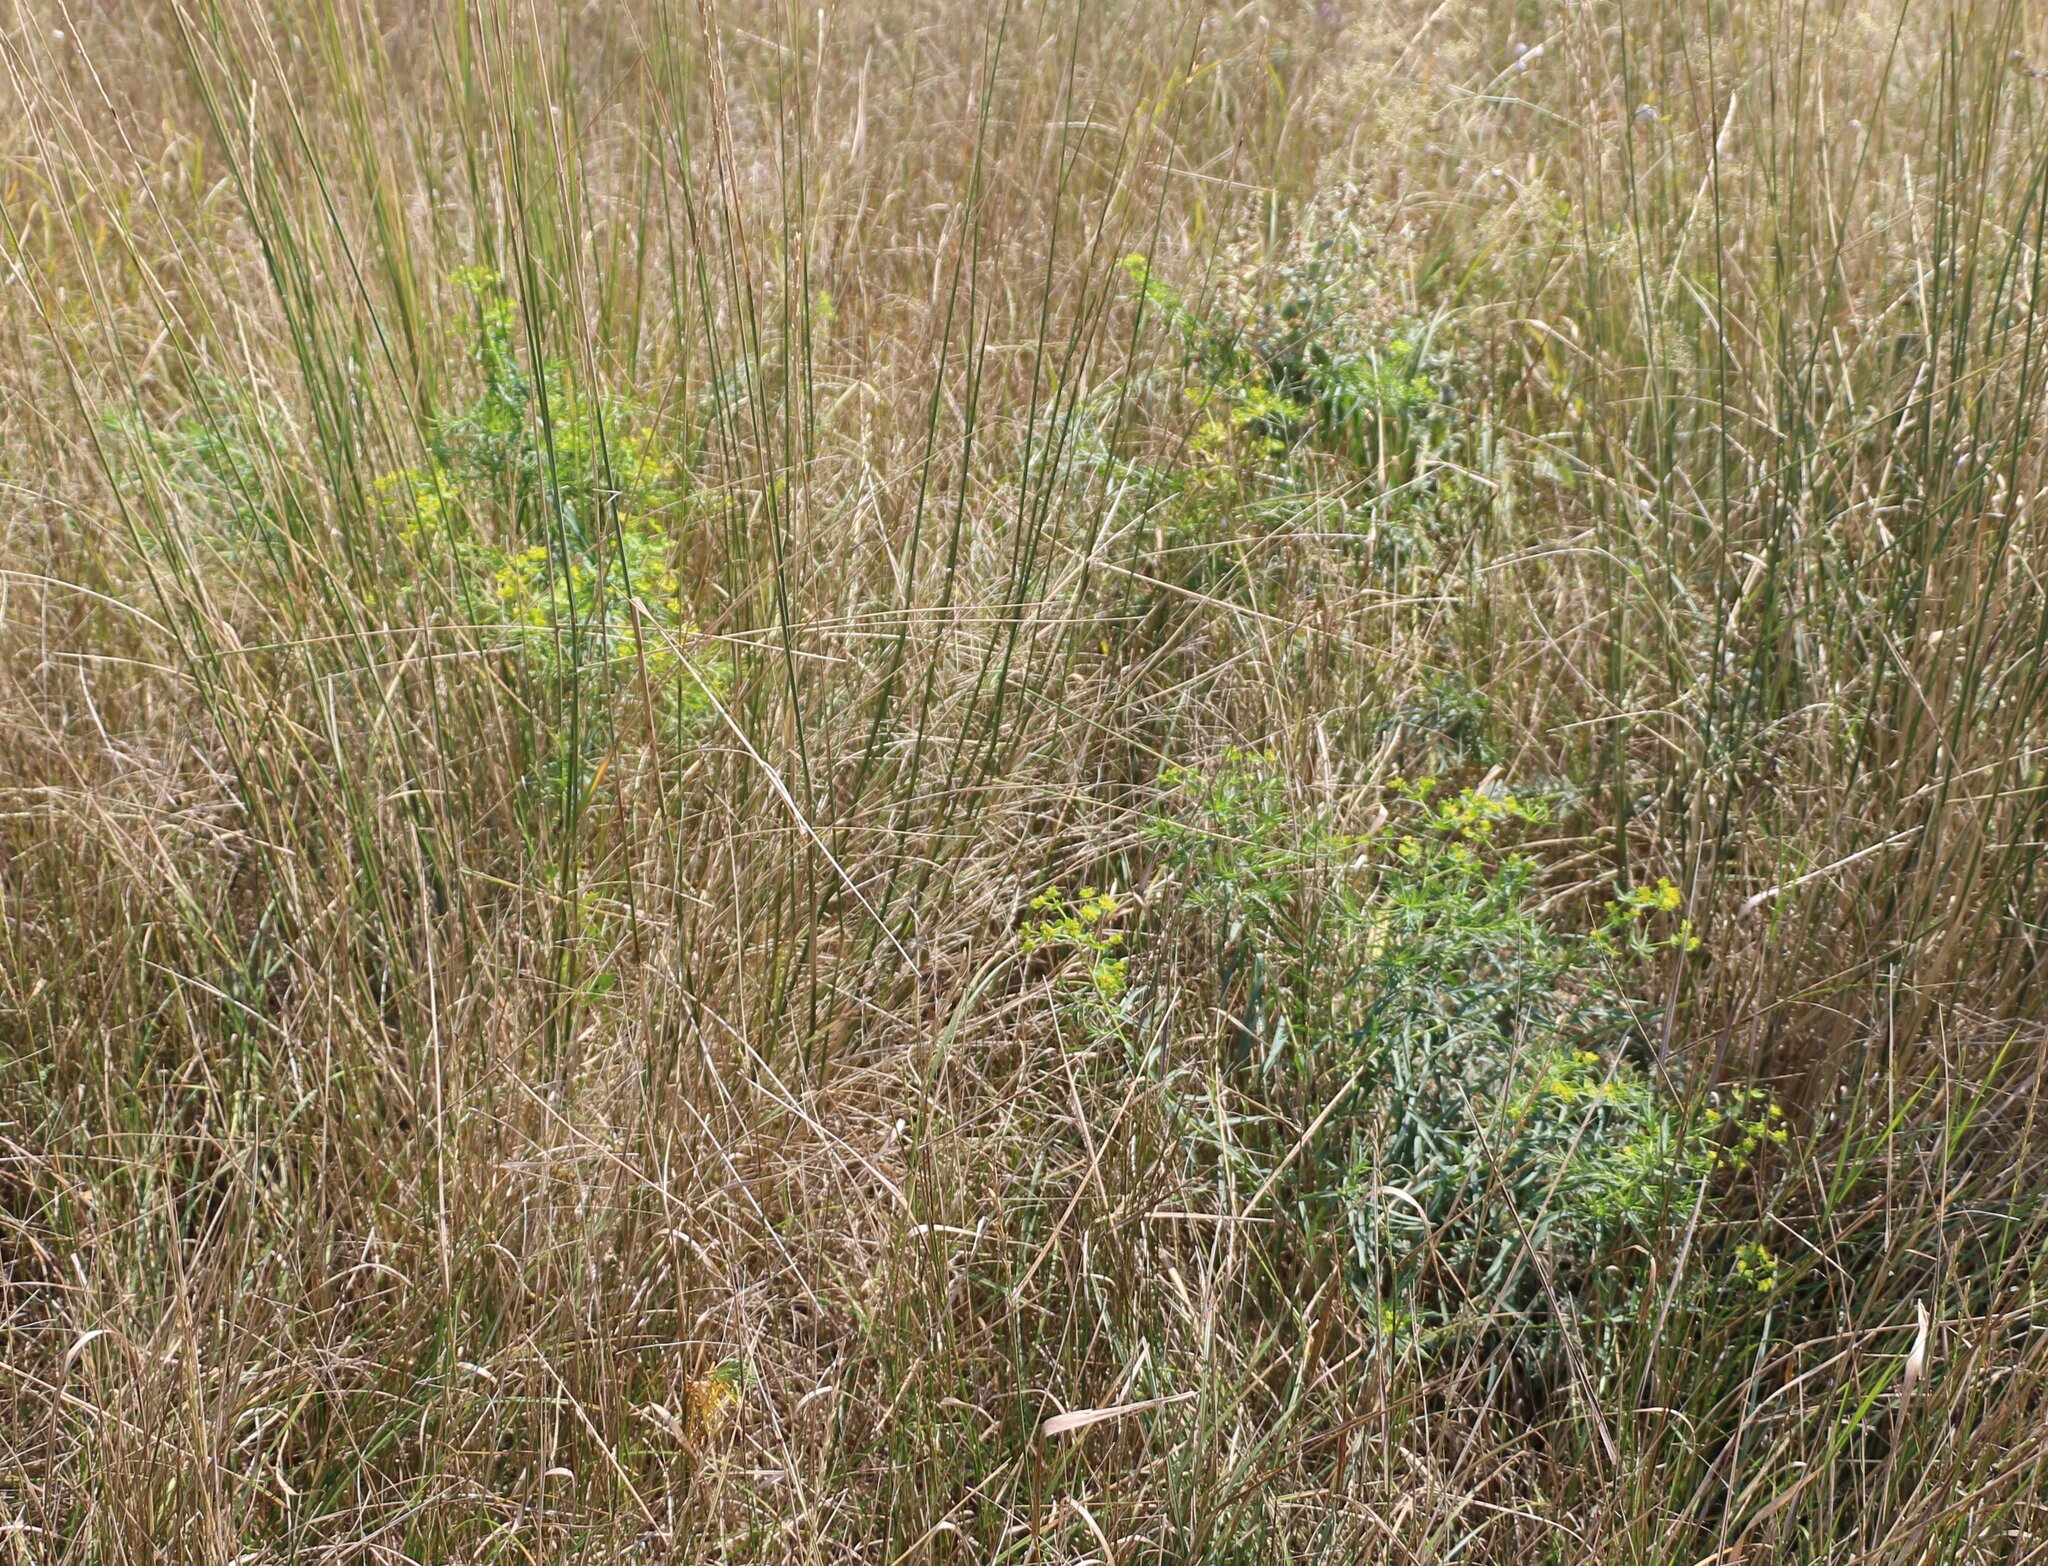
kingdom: Plantae
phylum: Tracheophyta
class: Magnoliopsida
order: Malpighiales
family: Euphorbiaceae
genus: Euphorbia
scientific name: Euphorbia virgata
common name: Leafy spurge
